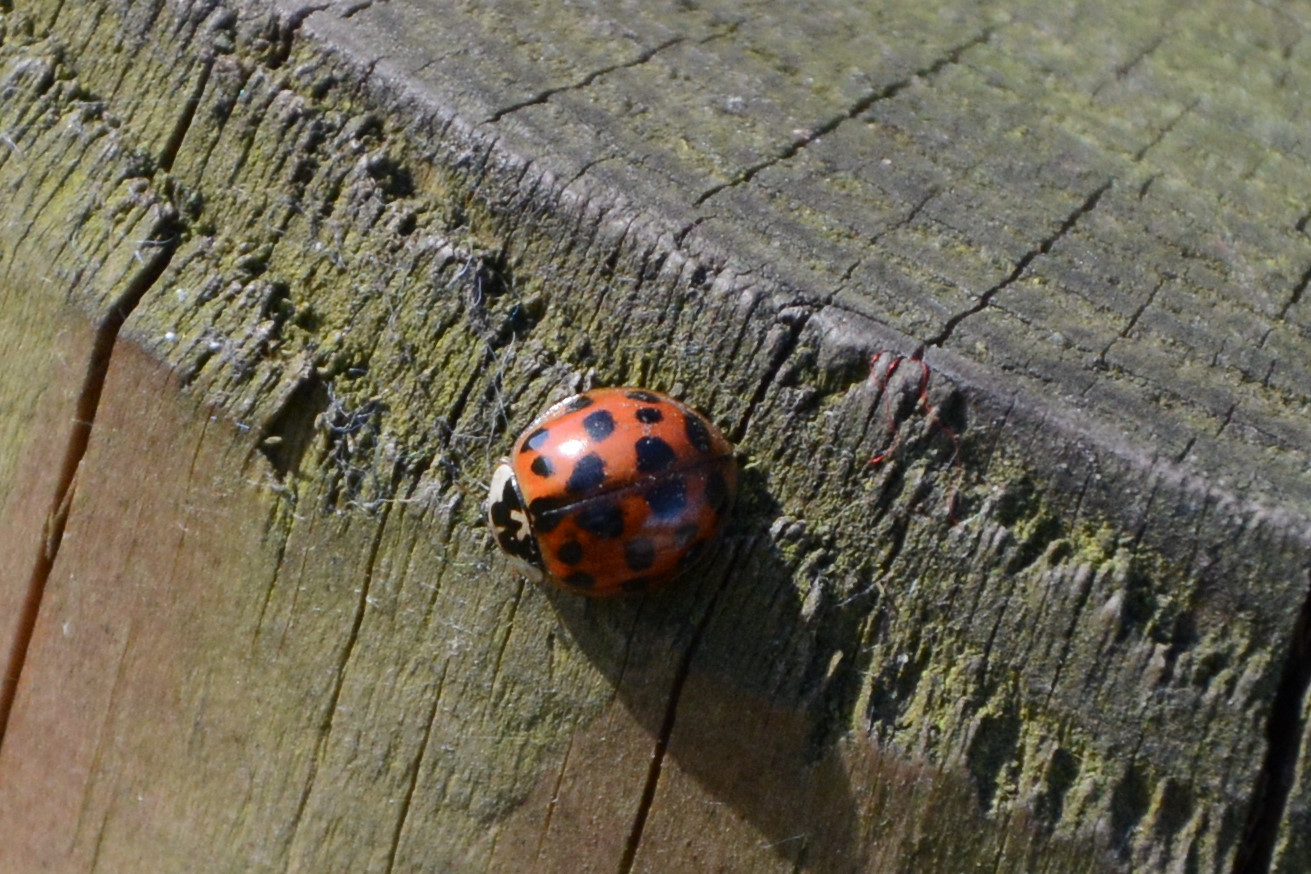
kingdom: Animalia
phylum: Arthropoda
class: Insecta
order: Coleoptera
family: Coccinellidae
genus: Harmonia
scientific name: Harmonia axyridis
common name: Harlequin ladybird
